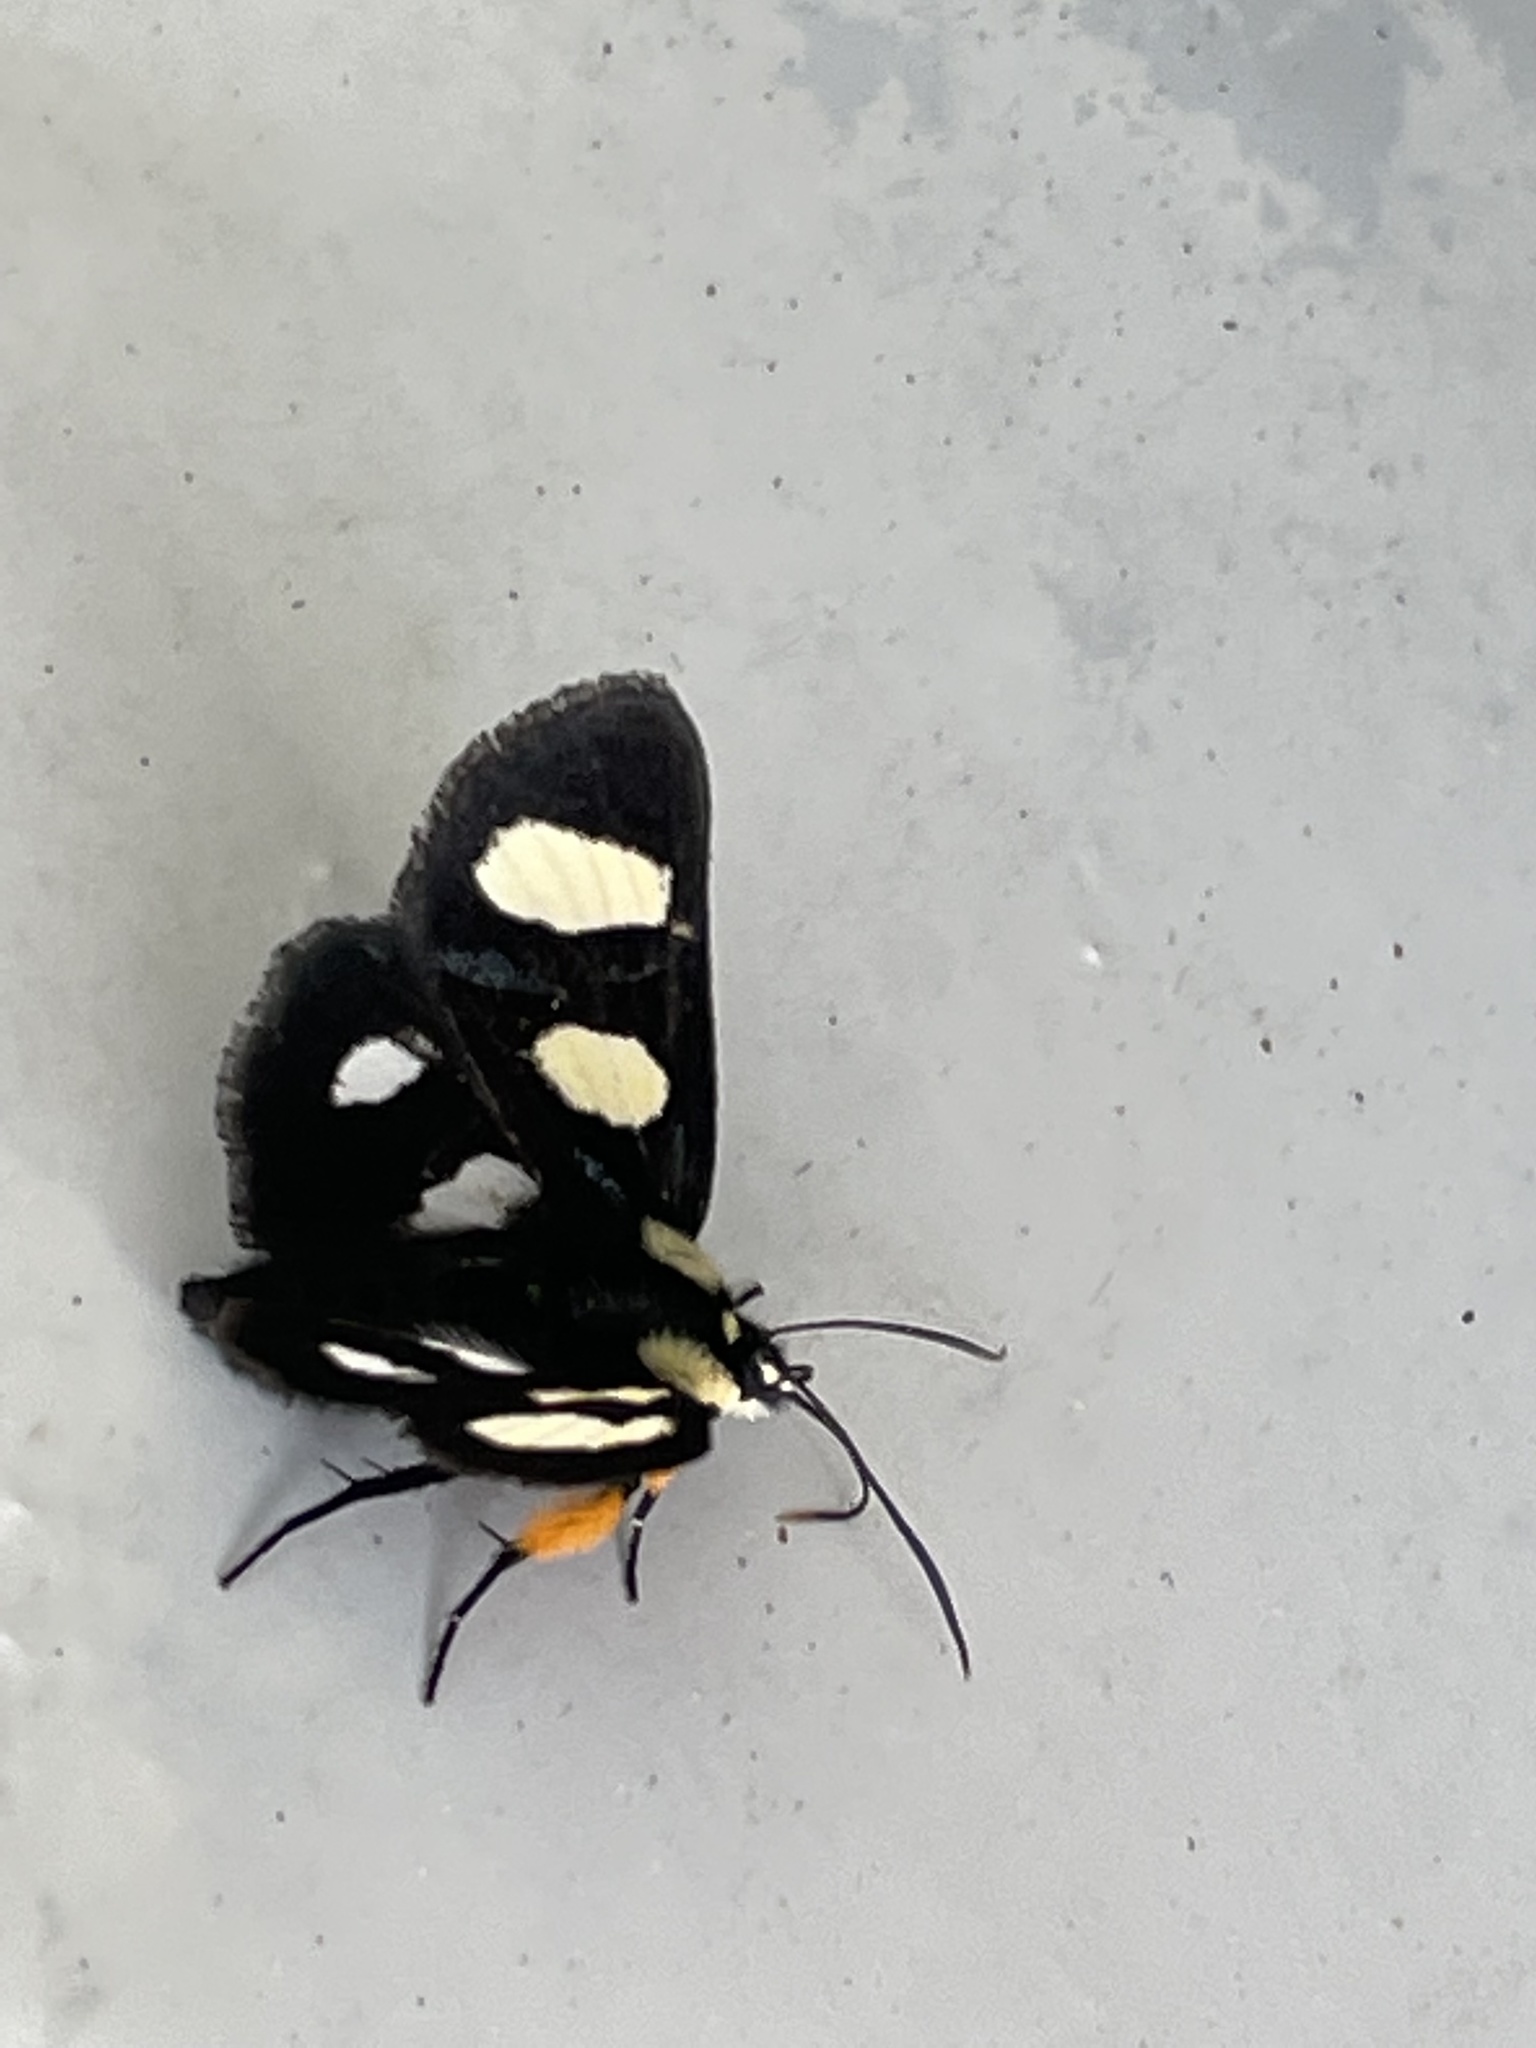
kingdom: Animalia
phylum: Arthropoda
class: Insecta
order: Lepidoptera
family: Noctuidae
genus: Alypia
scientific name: Alypia octomaculata
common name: Eight-spotted forester
